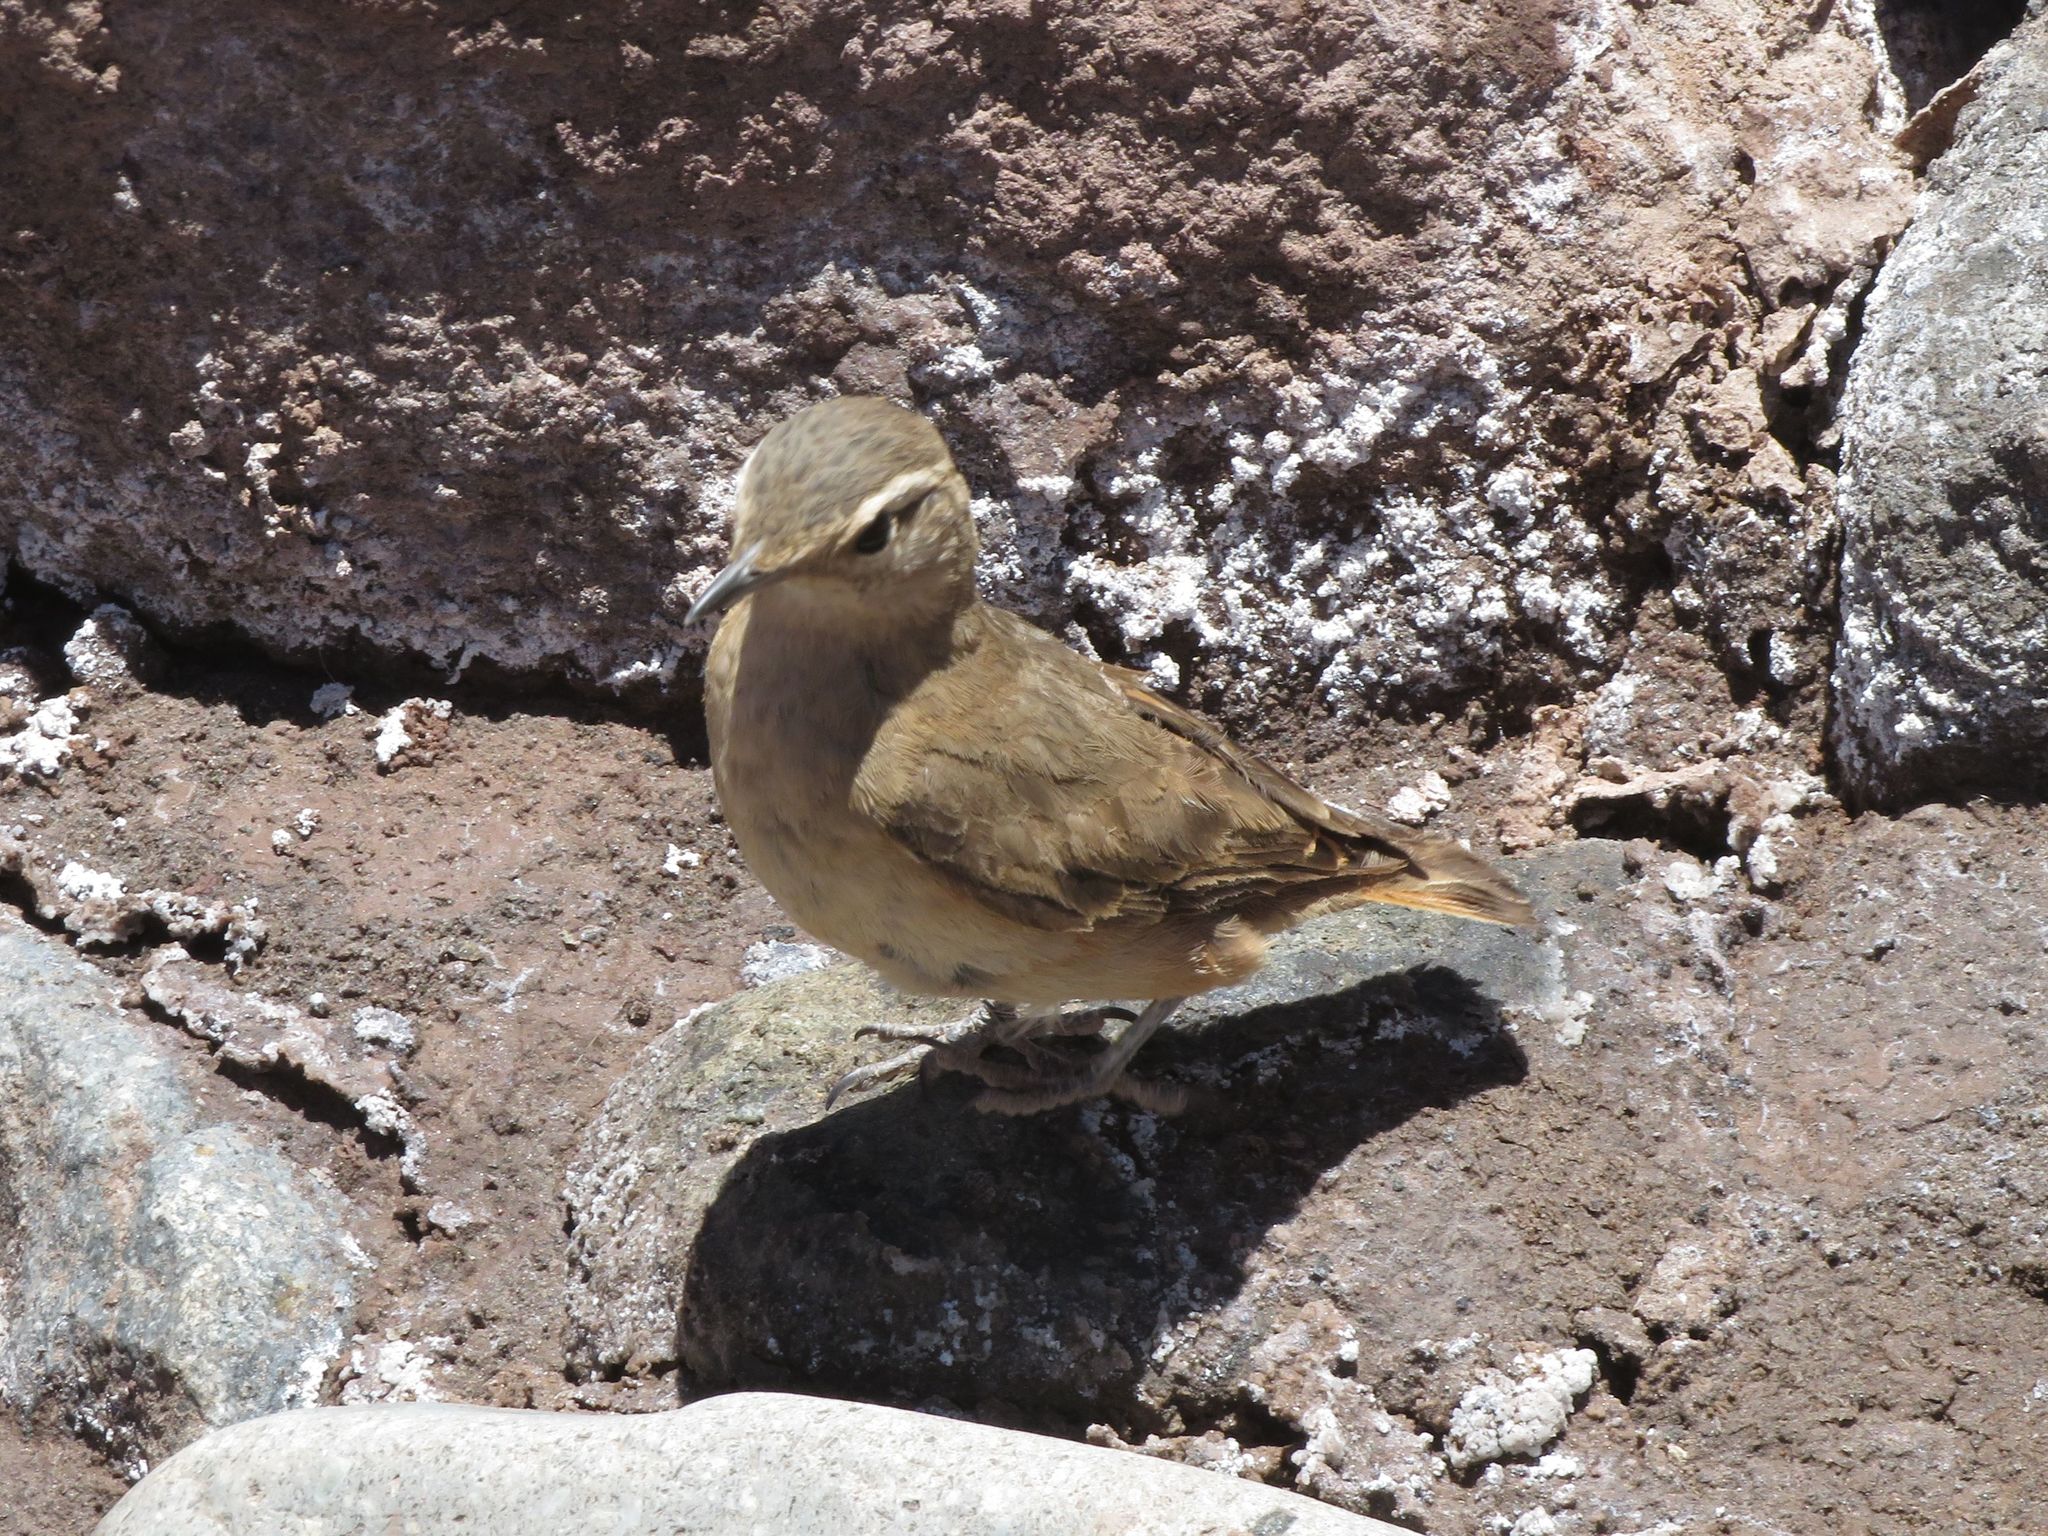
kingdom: Animalia
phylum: Chordata
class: Aves
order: Passeriformes
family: Furnariidae
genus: Geositta
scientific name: Geositta rufipennis
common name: Rufous-banded miner
